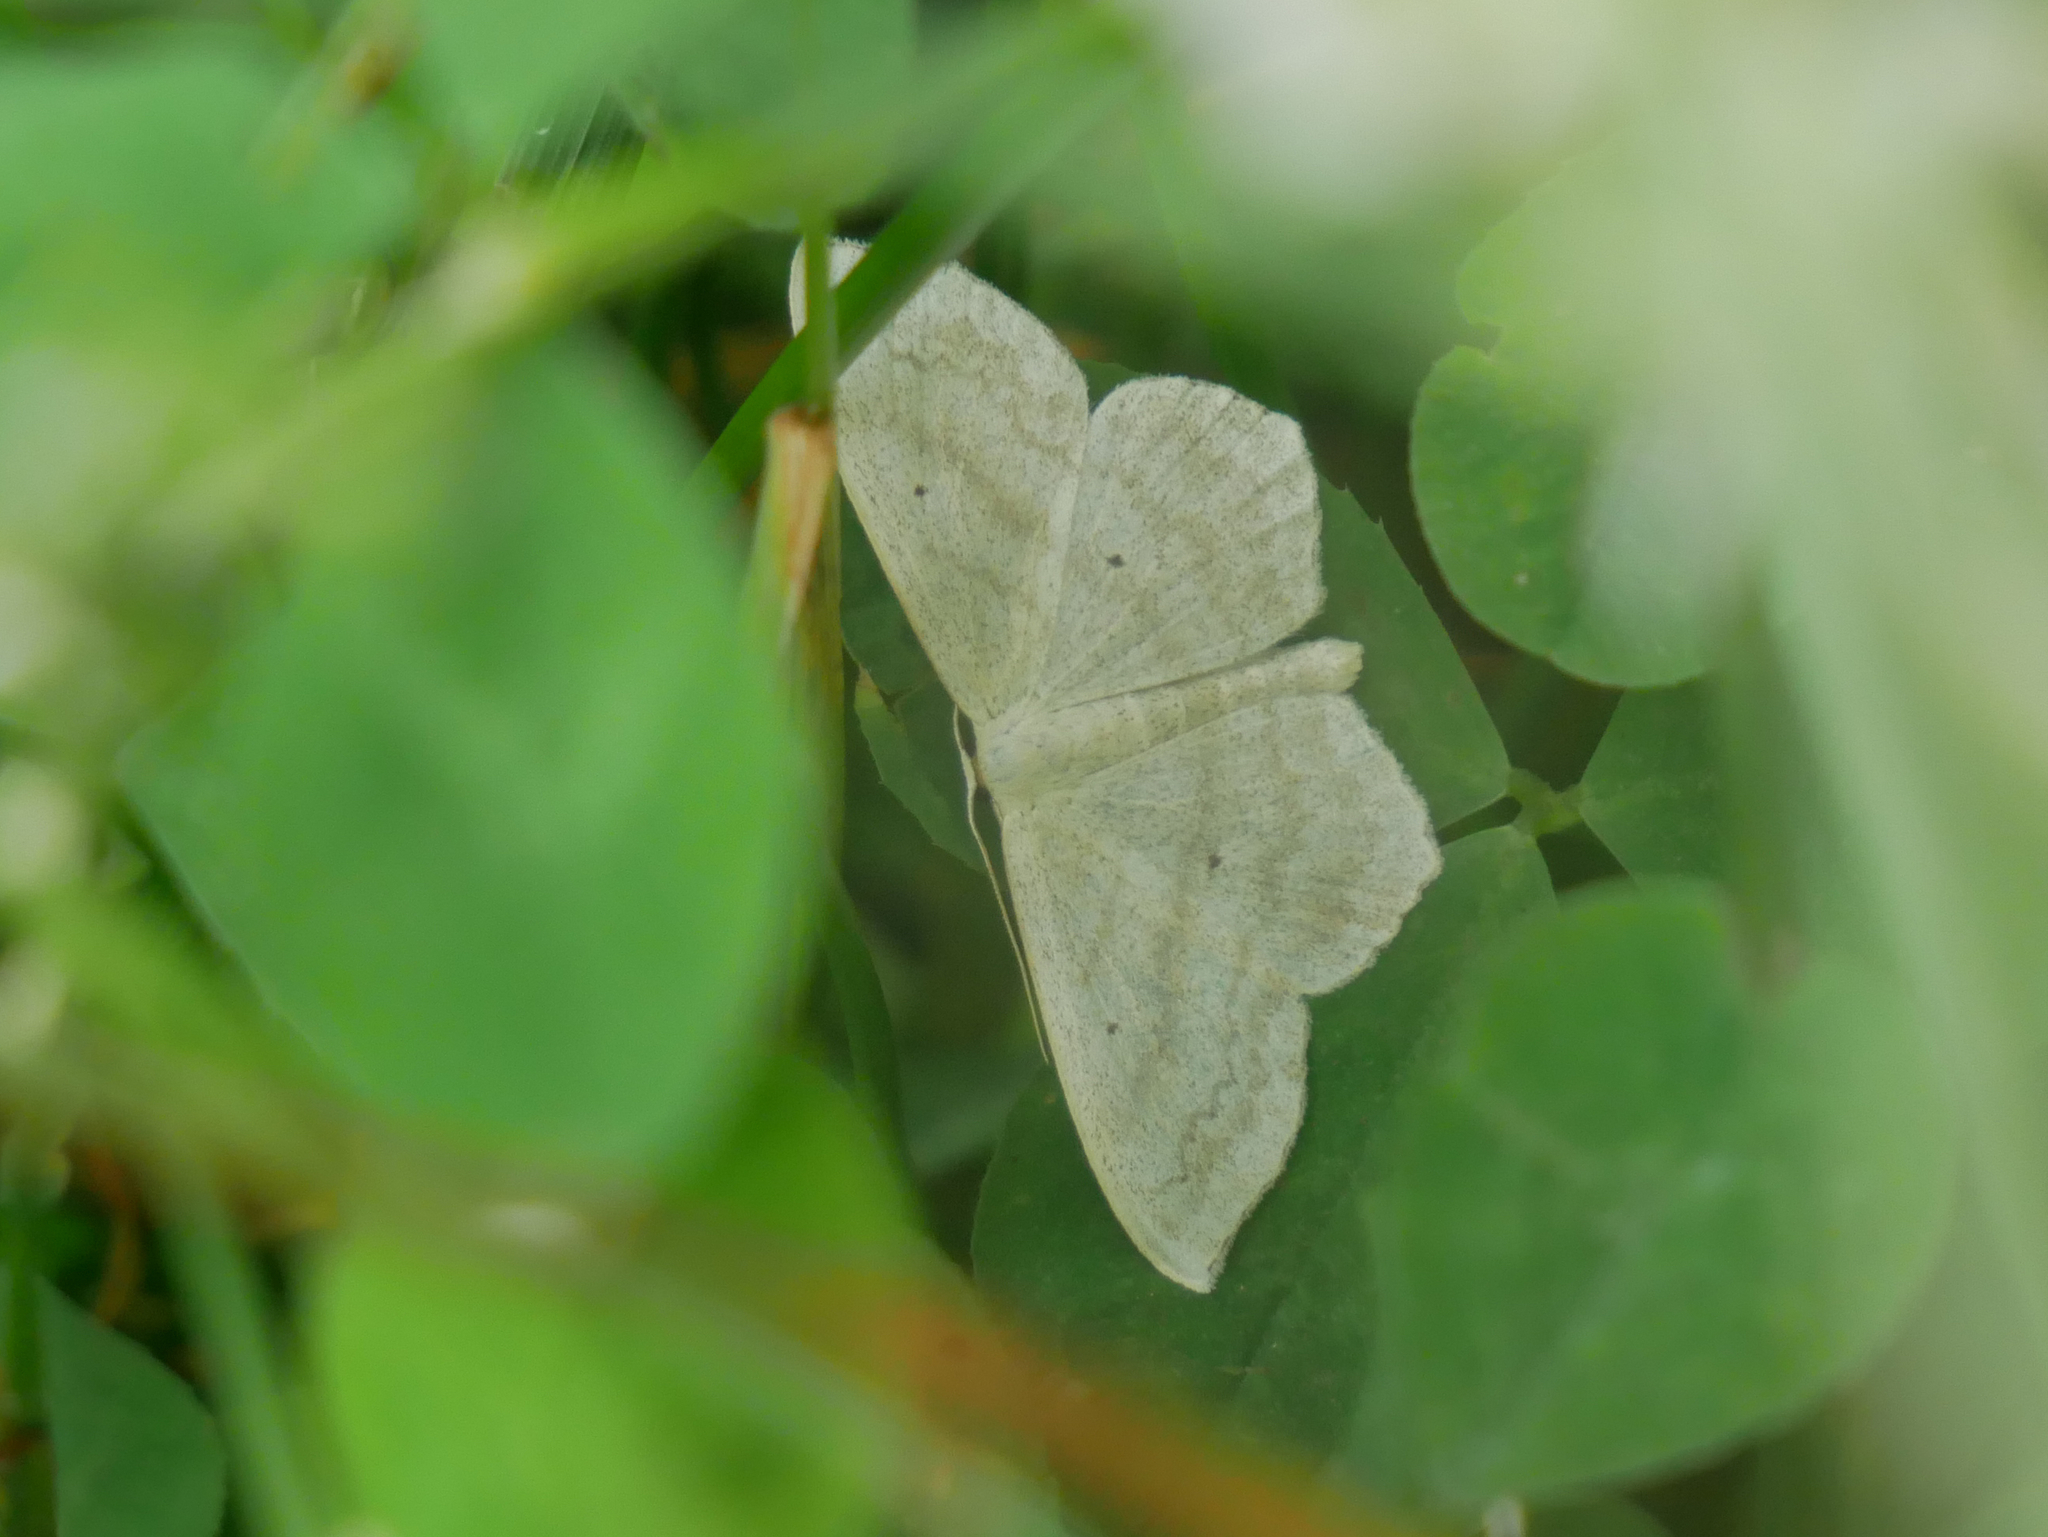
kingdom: Animalia
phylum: Arthropoda
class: Insecta
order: Lepidoptera
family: Geometridae
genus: Scopula
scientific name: Scopula nigropunctata
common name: Sub-angled wave
